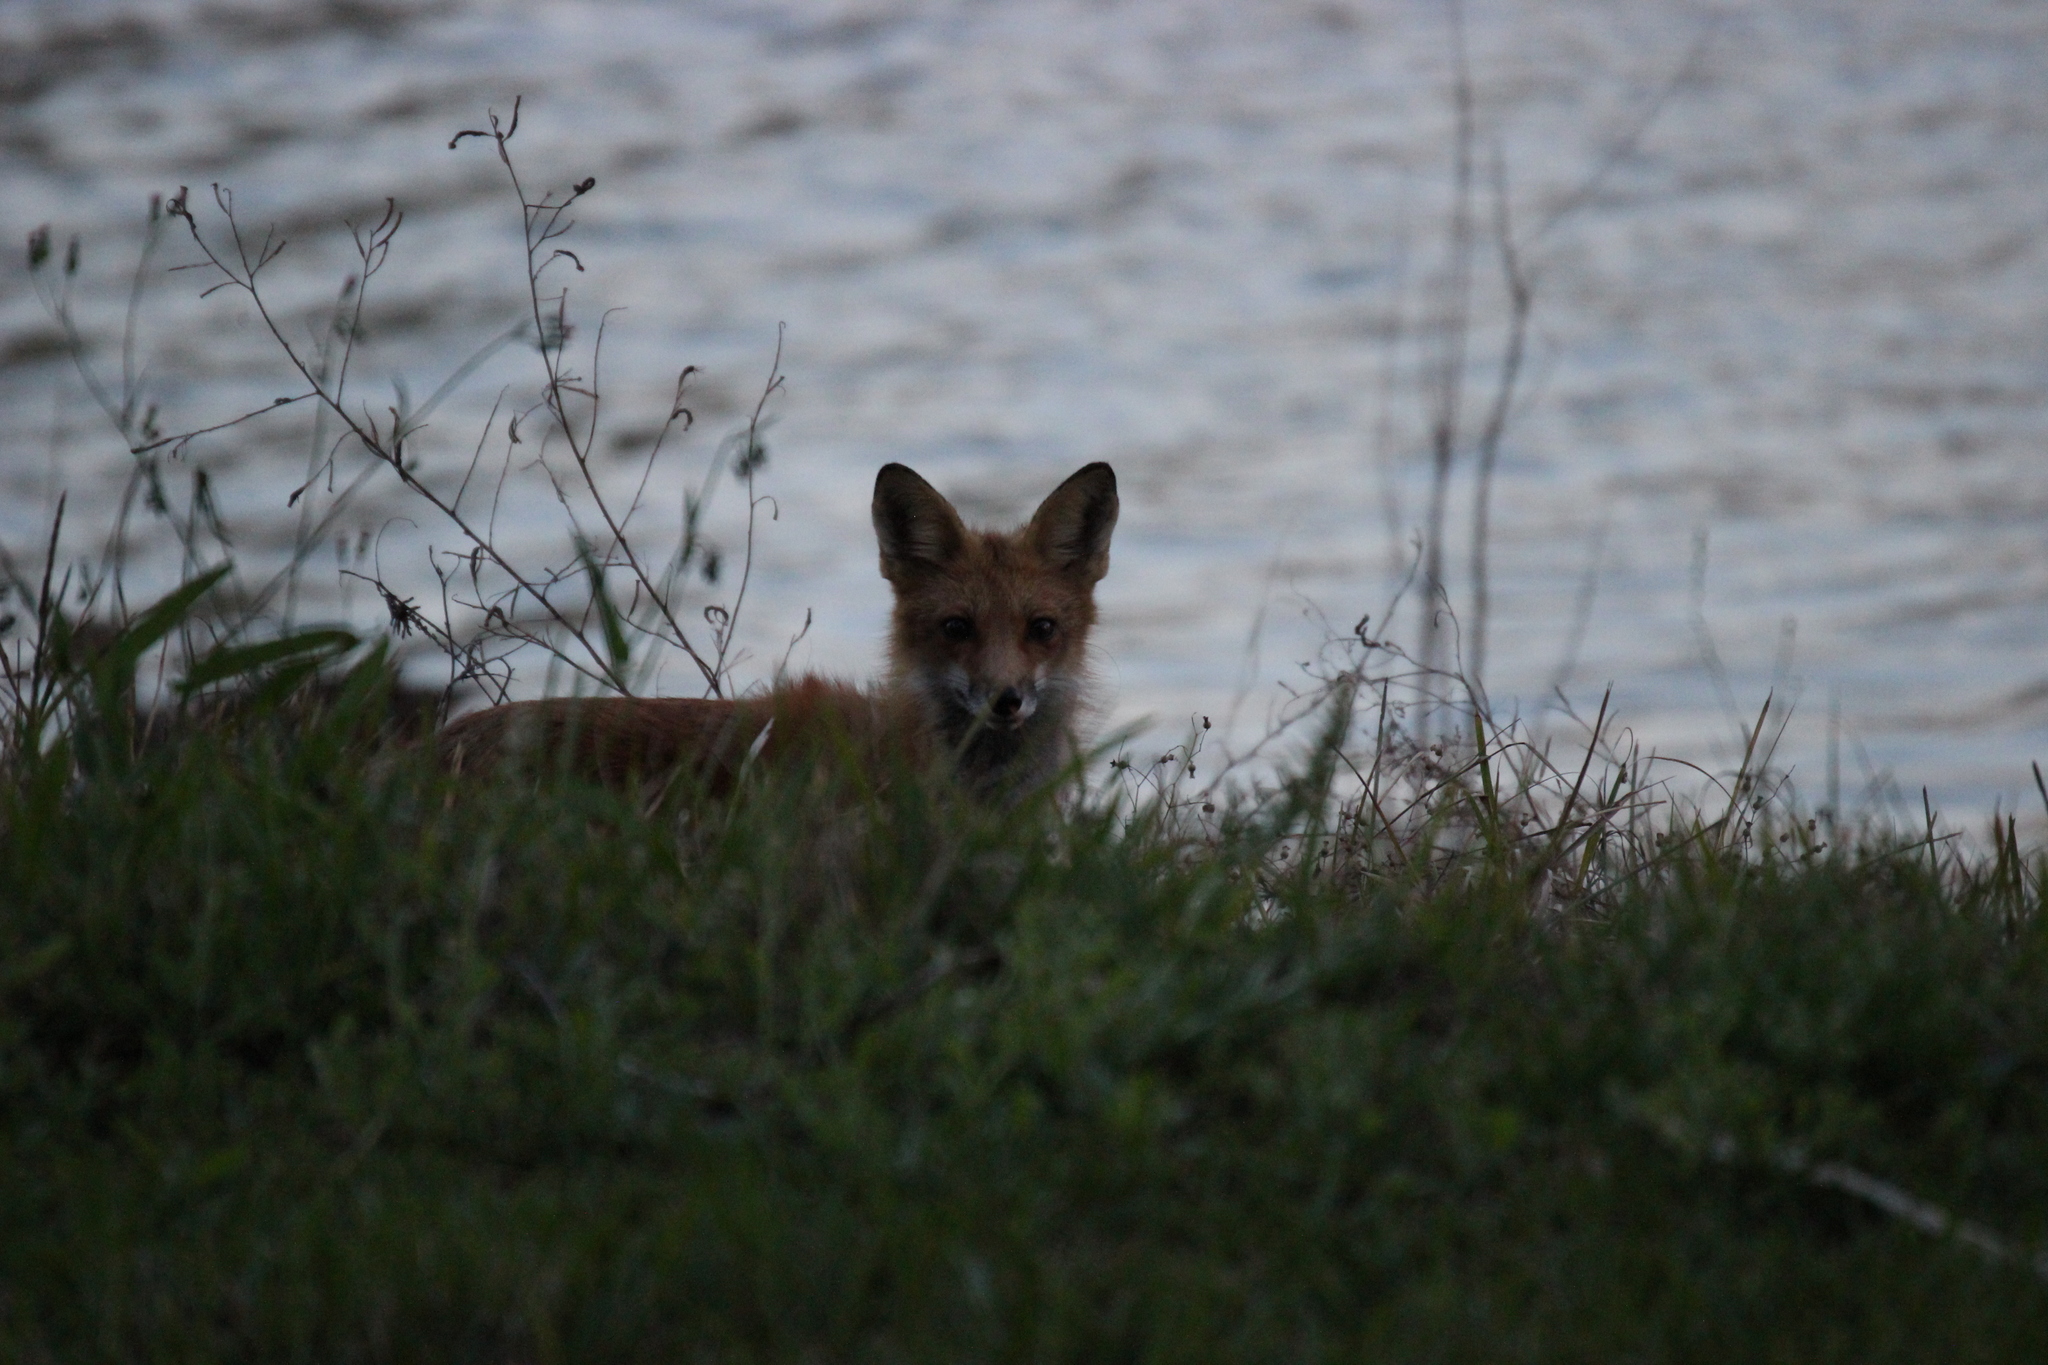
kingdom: Animalia
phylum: Chordata
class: Mammalia
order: Carnivora
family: Canidae
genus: Vulpes
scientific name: Vulpes vulpes
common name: Red fox
